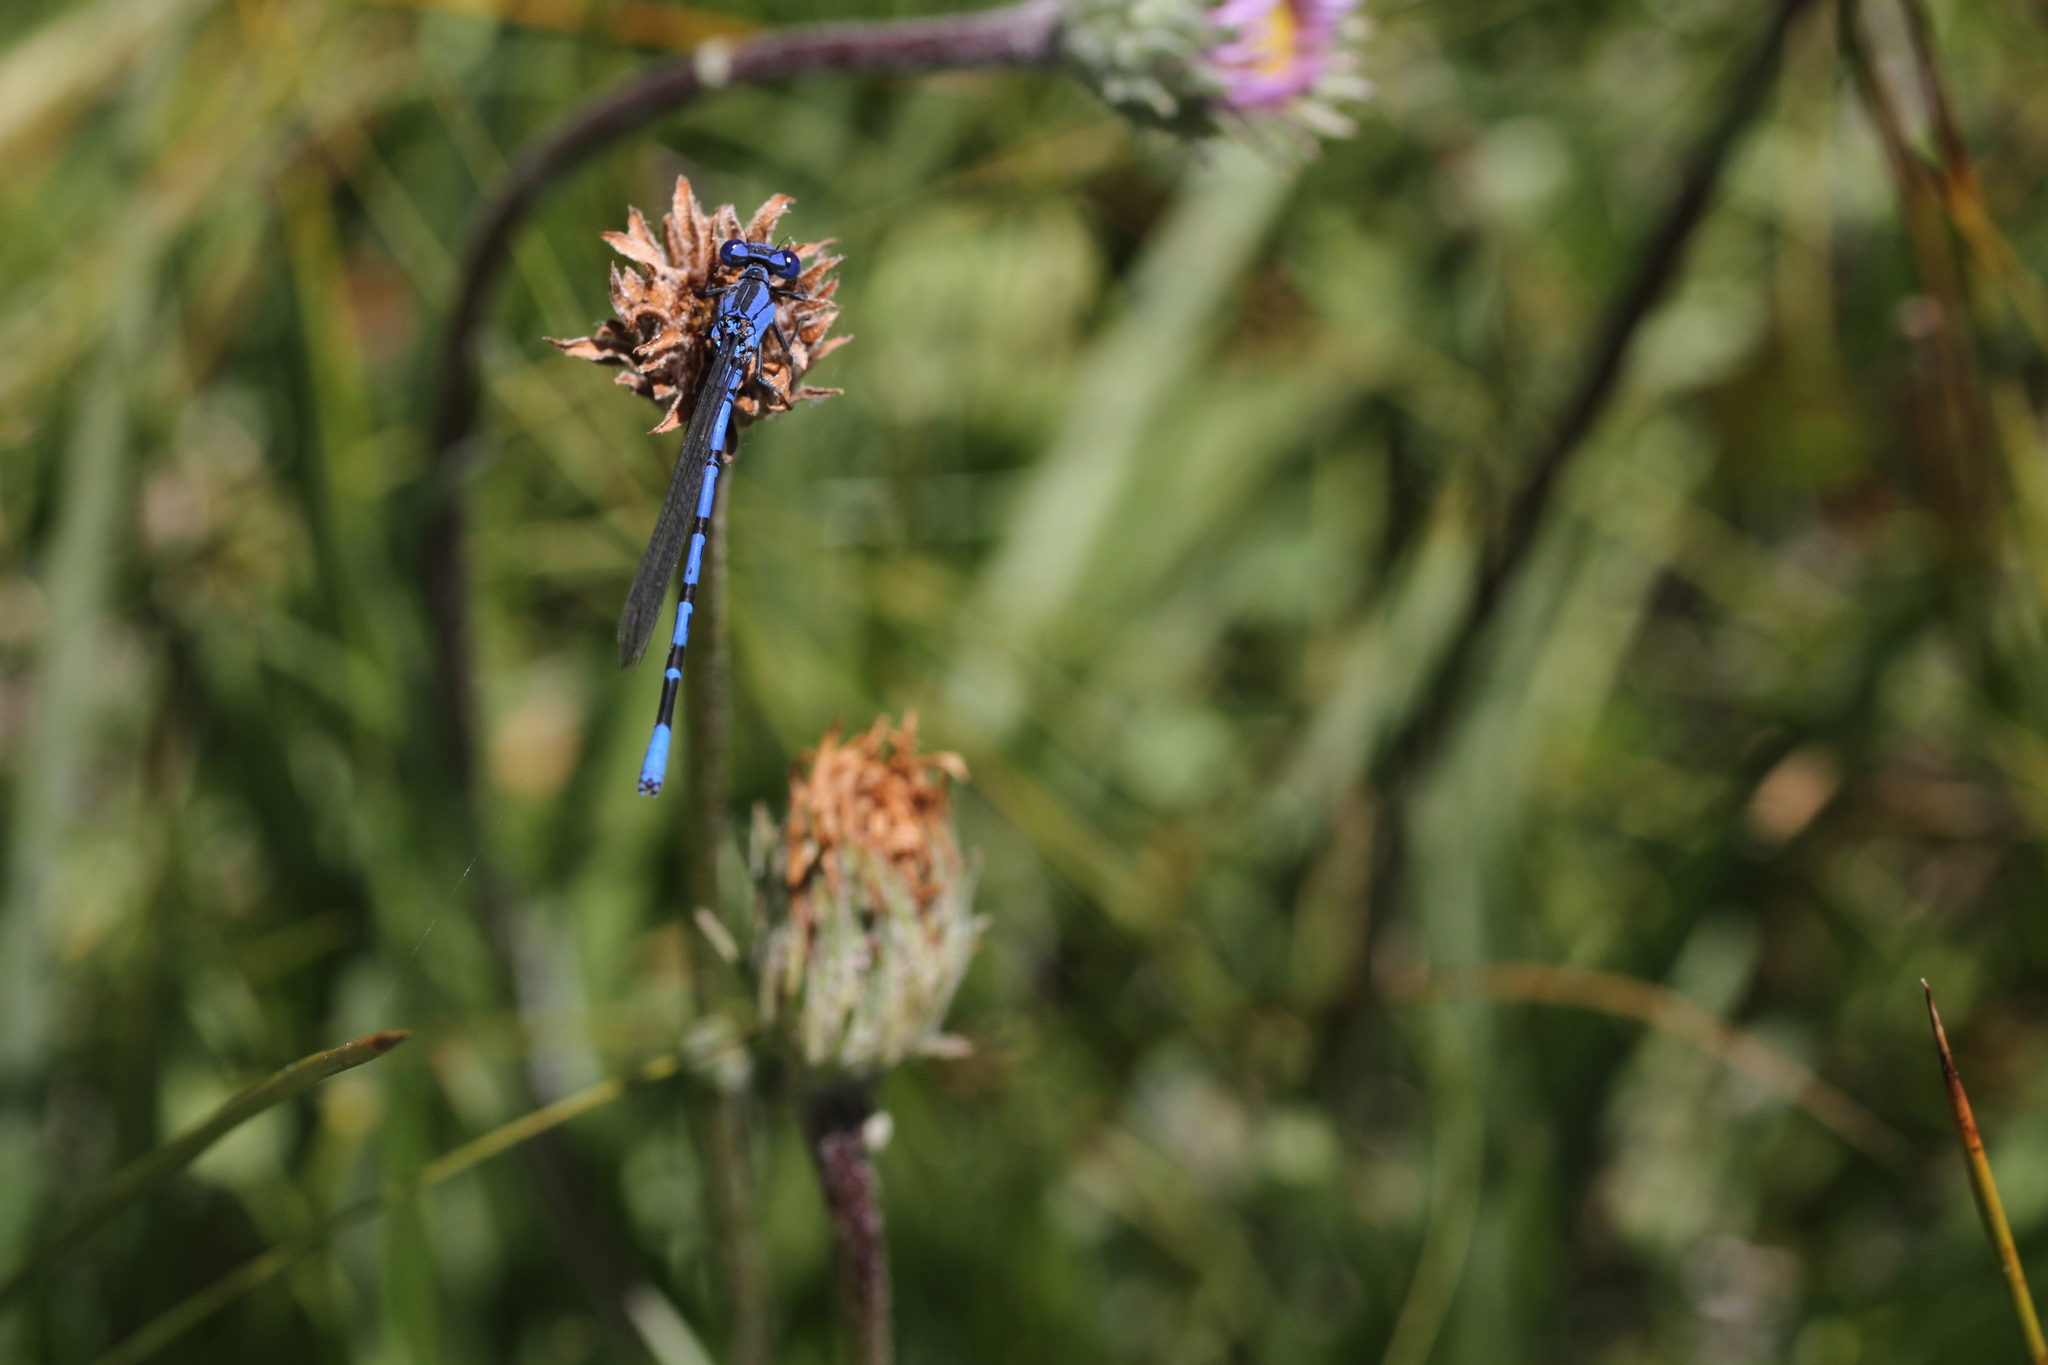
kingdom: Animalia
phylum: Arthropoda
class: Insecta
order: Odonata
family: Coenagrionidae
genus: Argia
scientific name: Argia vivida
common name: Vivid dancer
